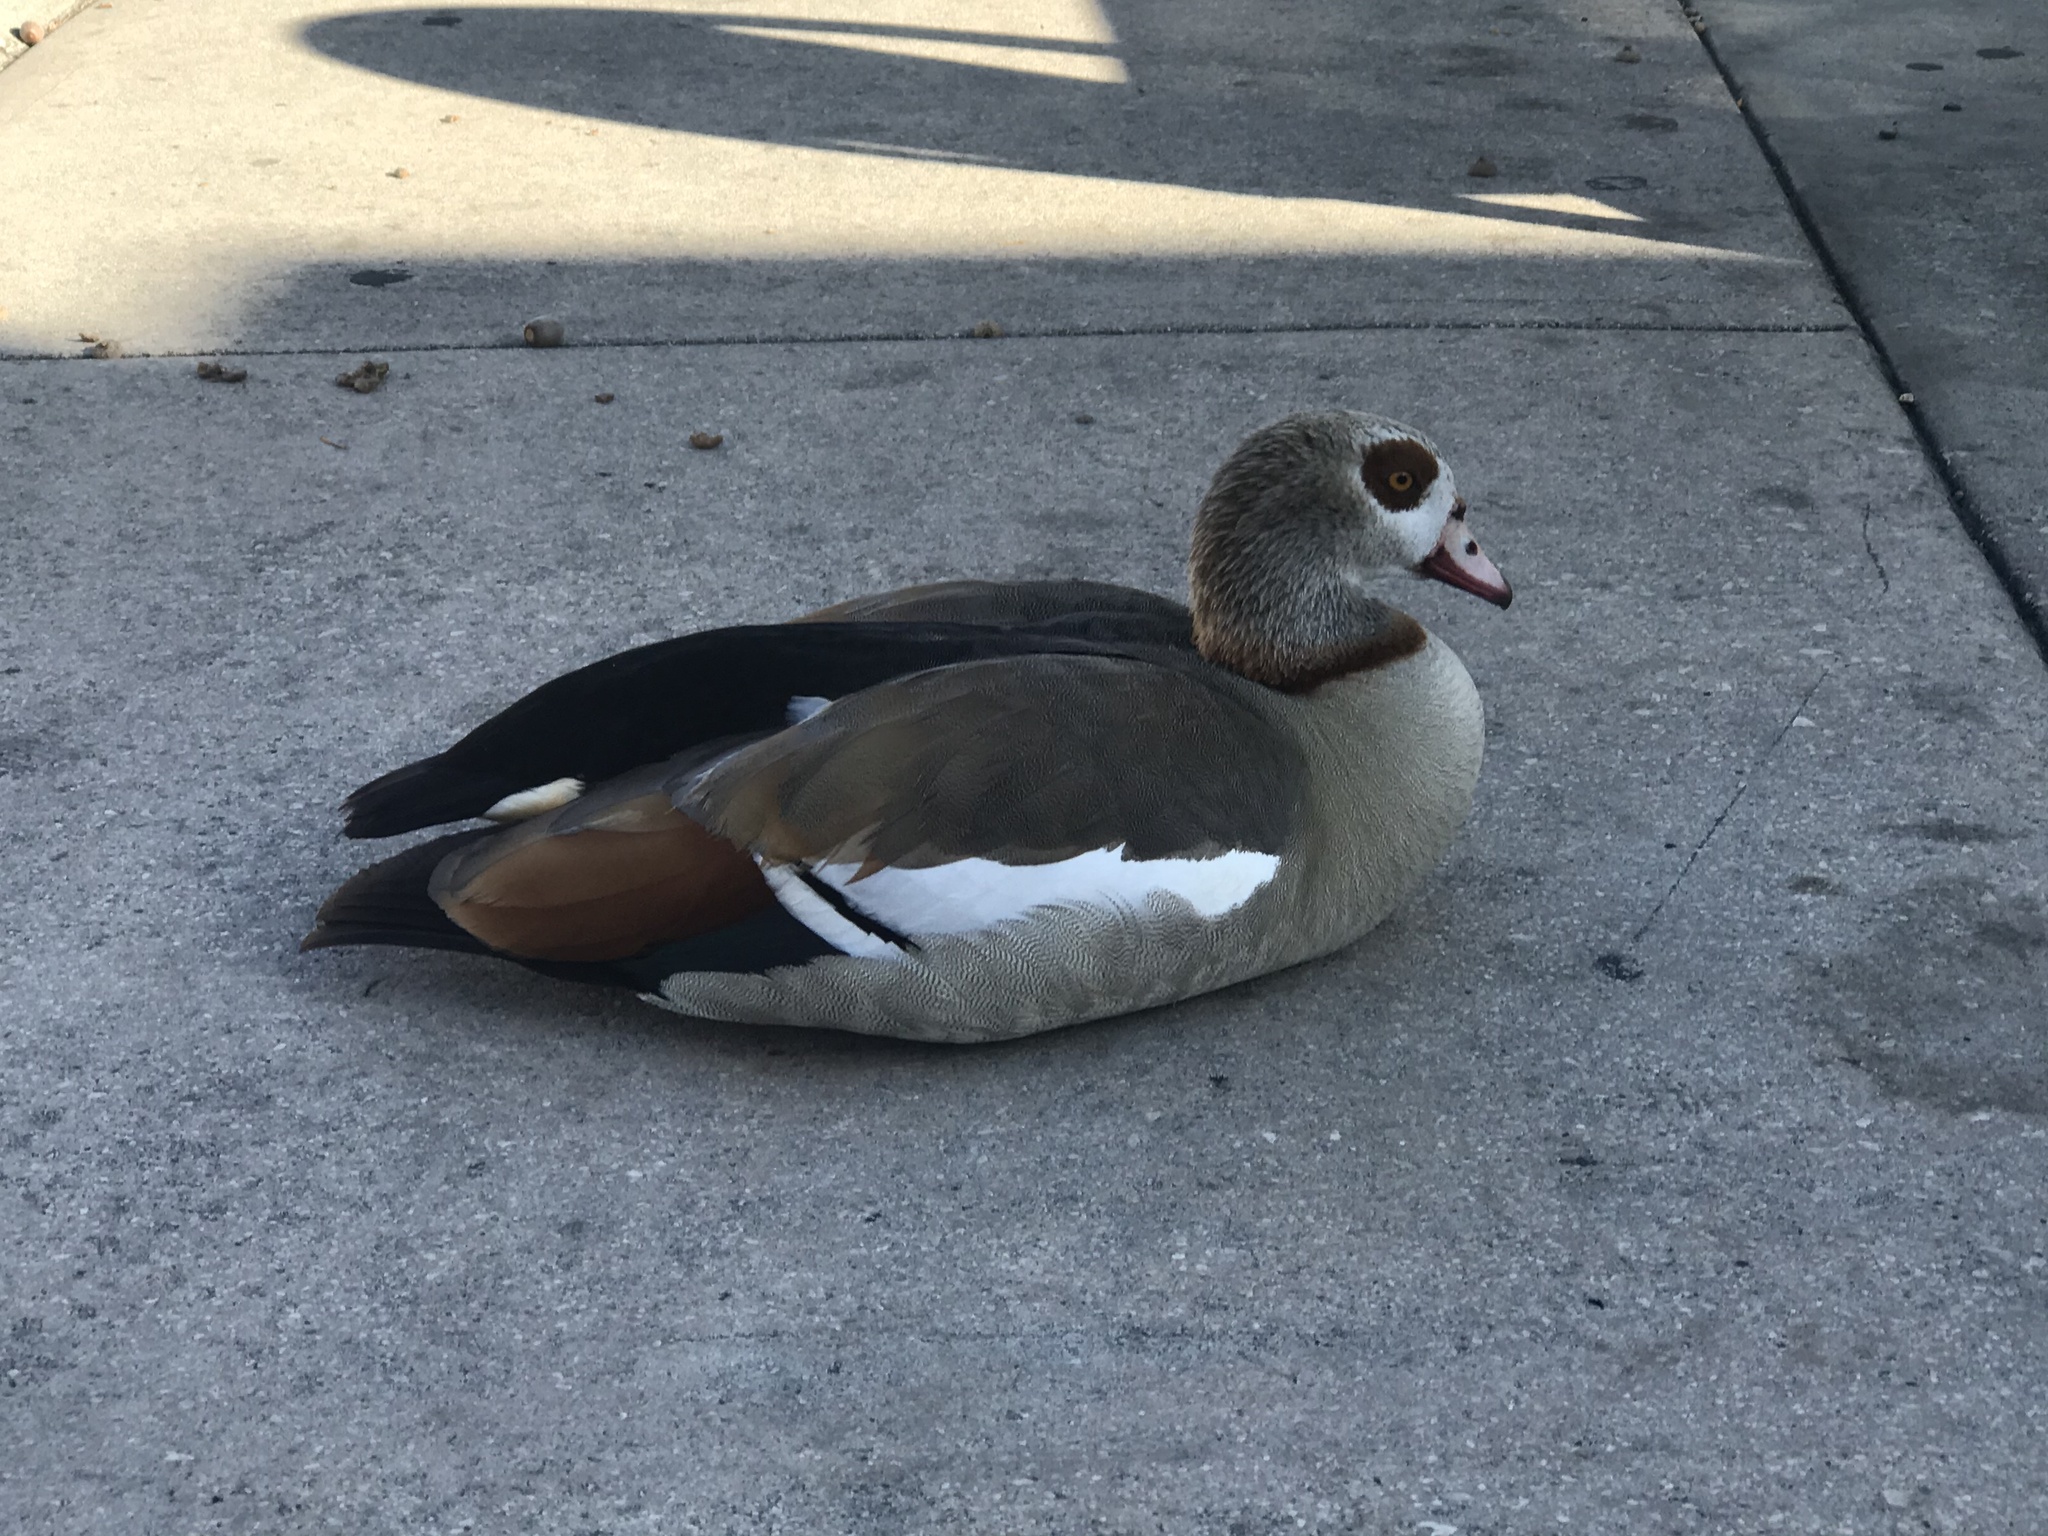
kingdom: Animalia
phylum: Chordata
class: Aves
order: Anseriformes
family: Anatidae
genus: Alopochen
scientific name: Alopochen aegyptiaca
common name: Egyptian goose
